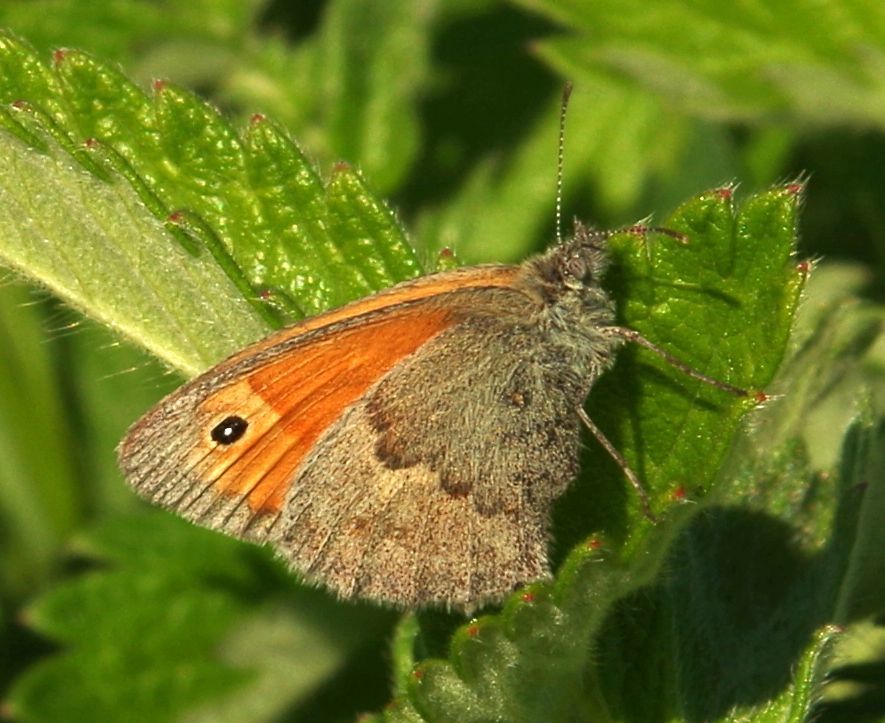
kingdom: Animalia
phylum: Arthropoda
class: Insecta
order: Lepidoptera
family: Nymphalidae
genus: Coenonympha
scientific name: Coenonympha pamphilus
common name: Small heath
